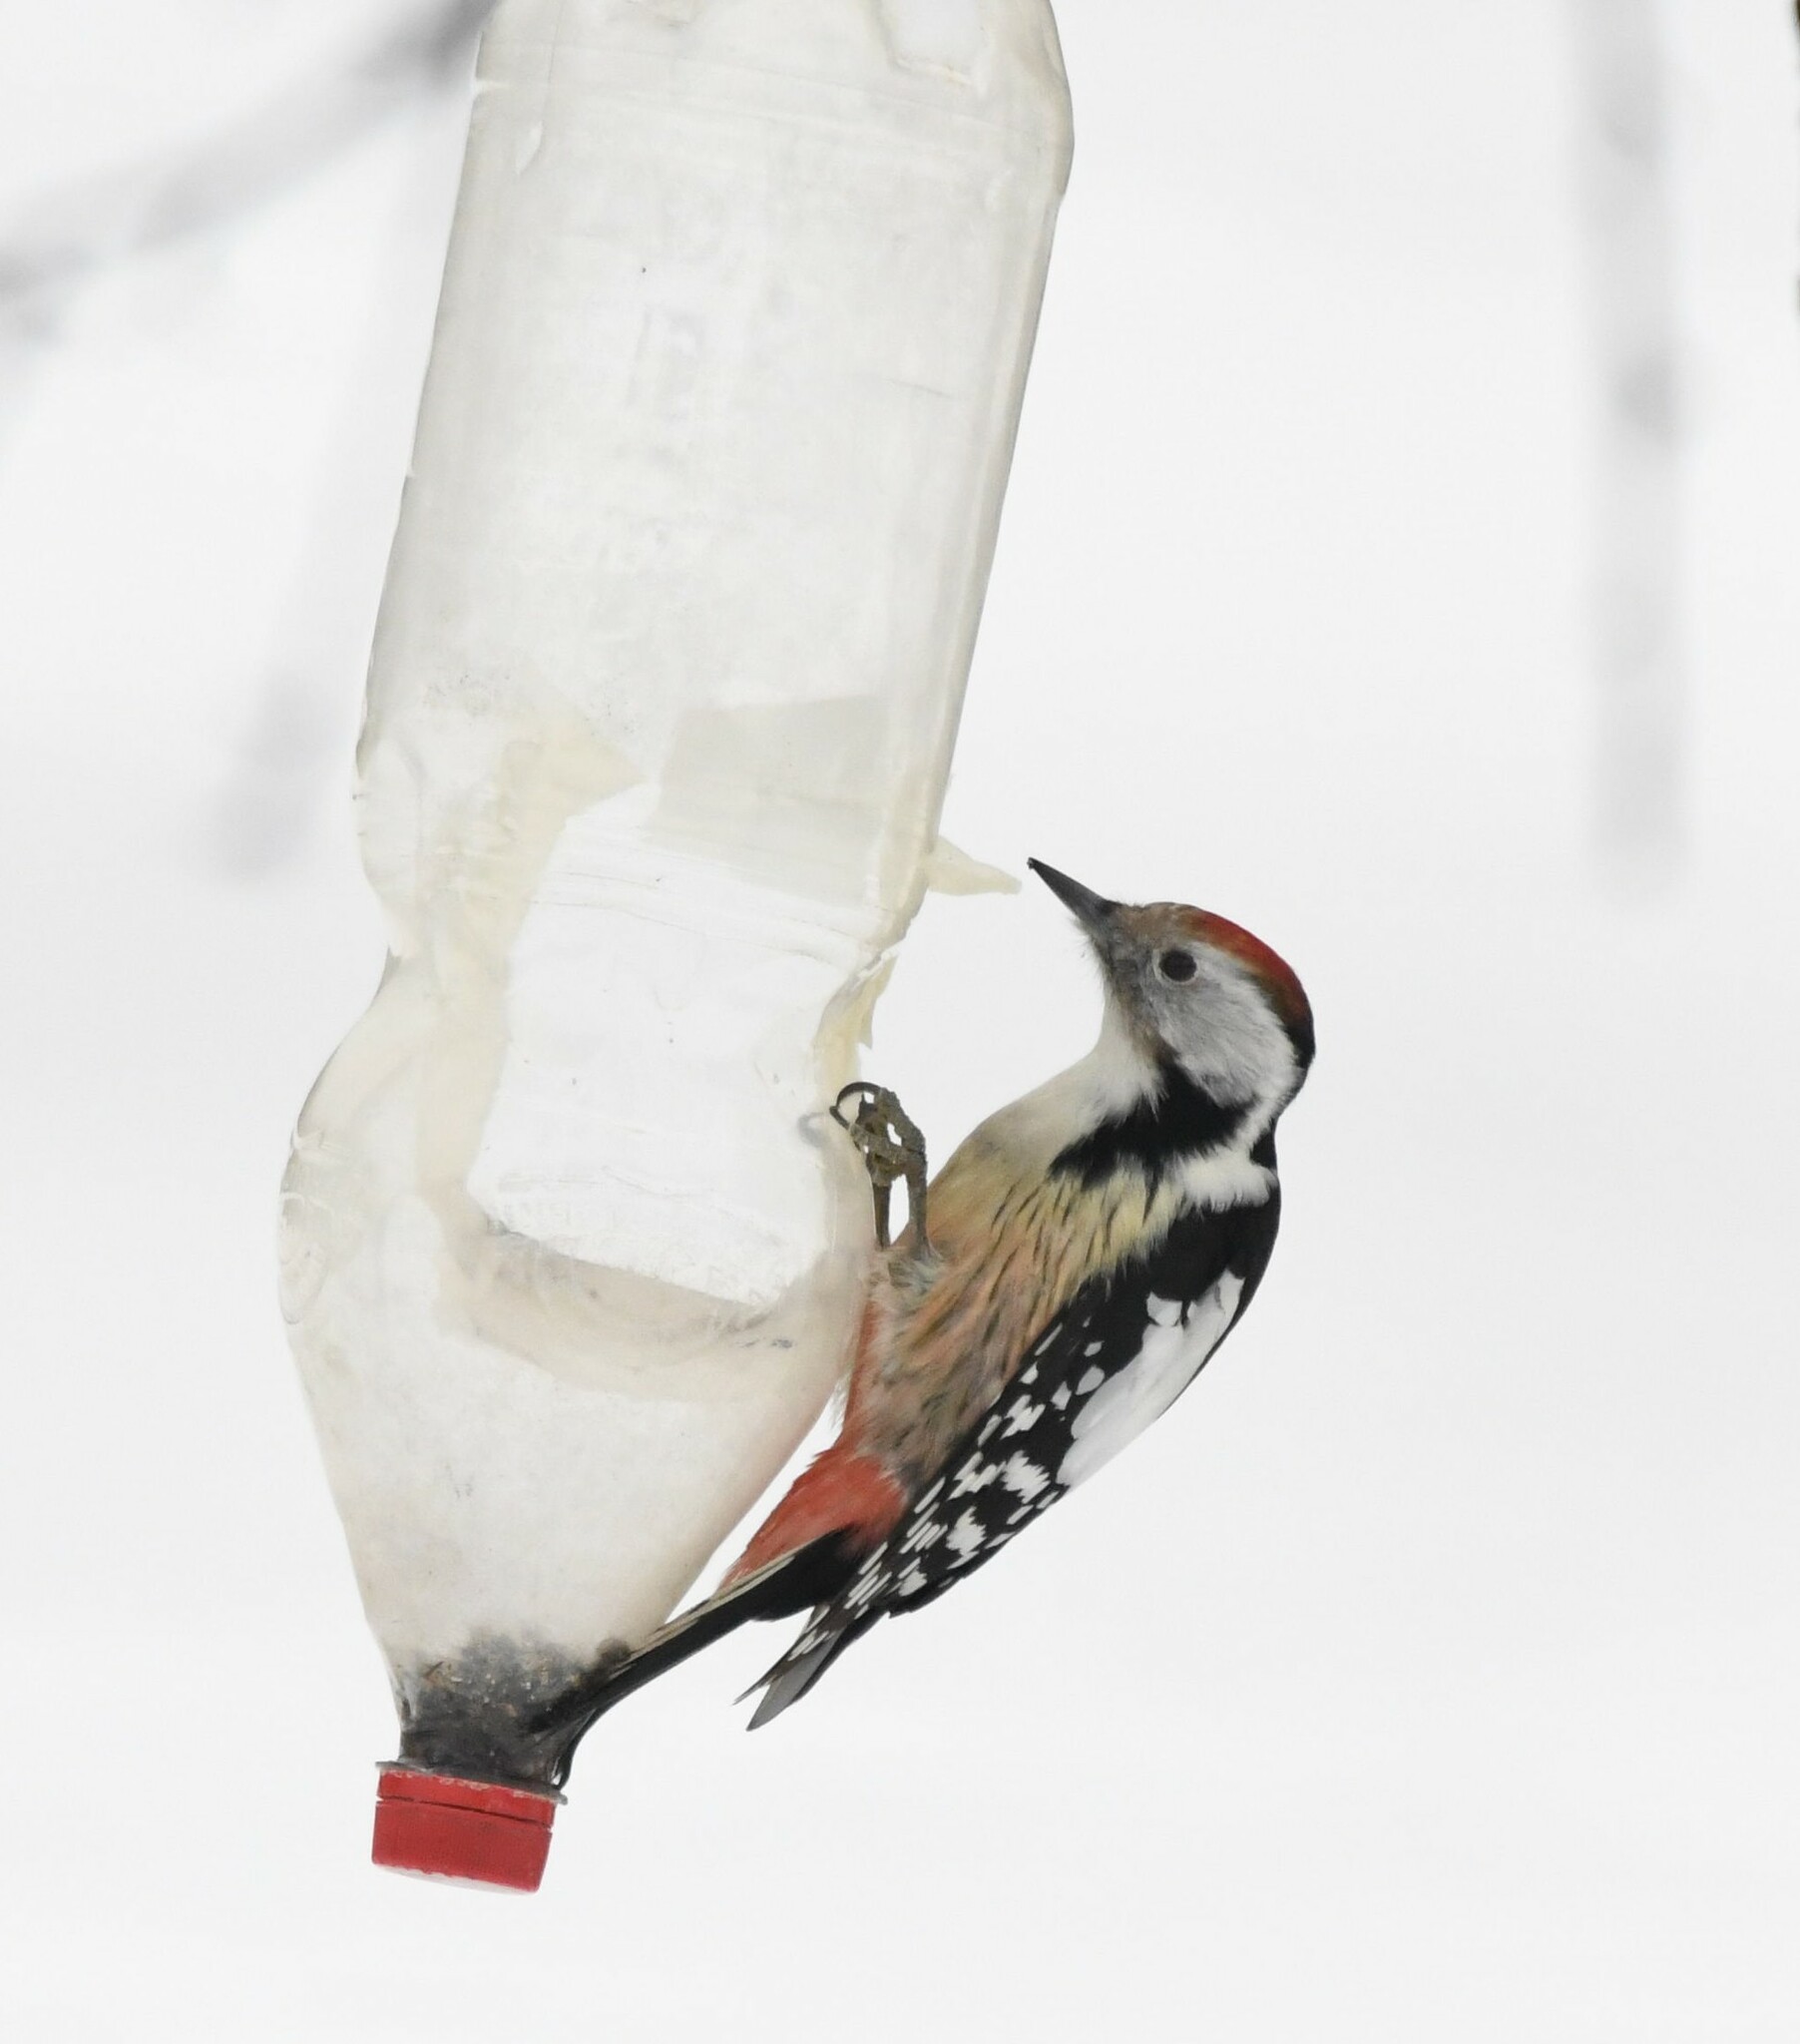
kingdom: Animalia
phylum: Chordata
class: Aves
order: Piciformes
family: Picidae
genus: Dendrocoptes
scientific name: Dendrocoptes medius
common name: Middle spotted woodpecker
